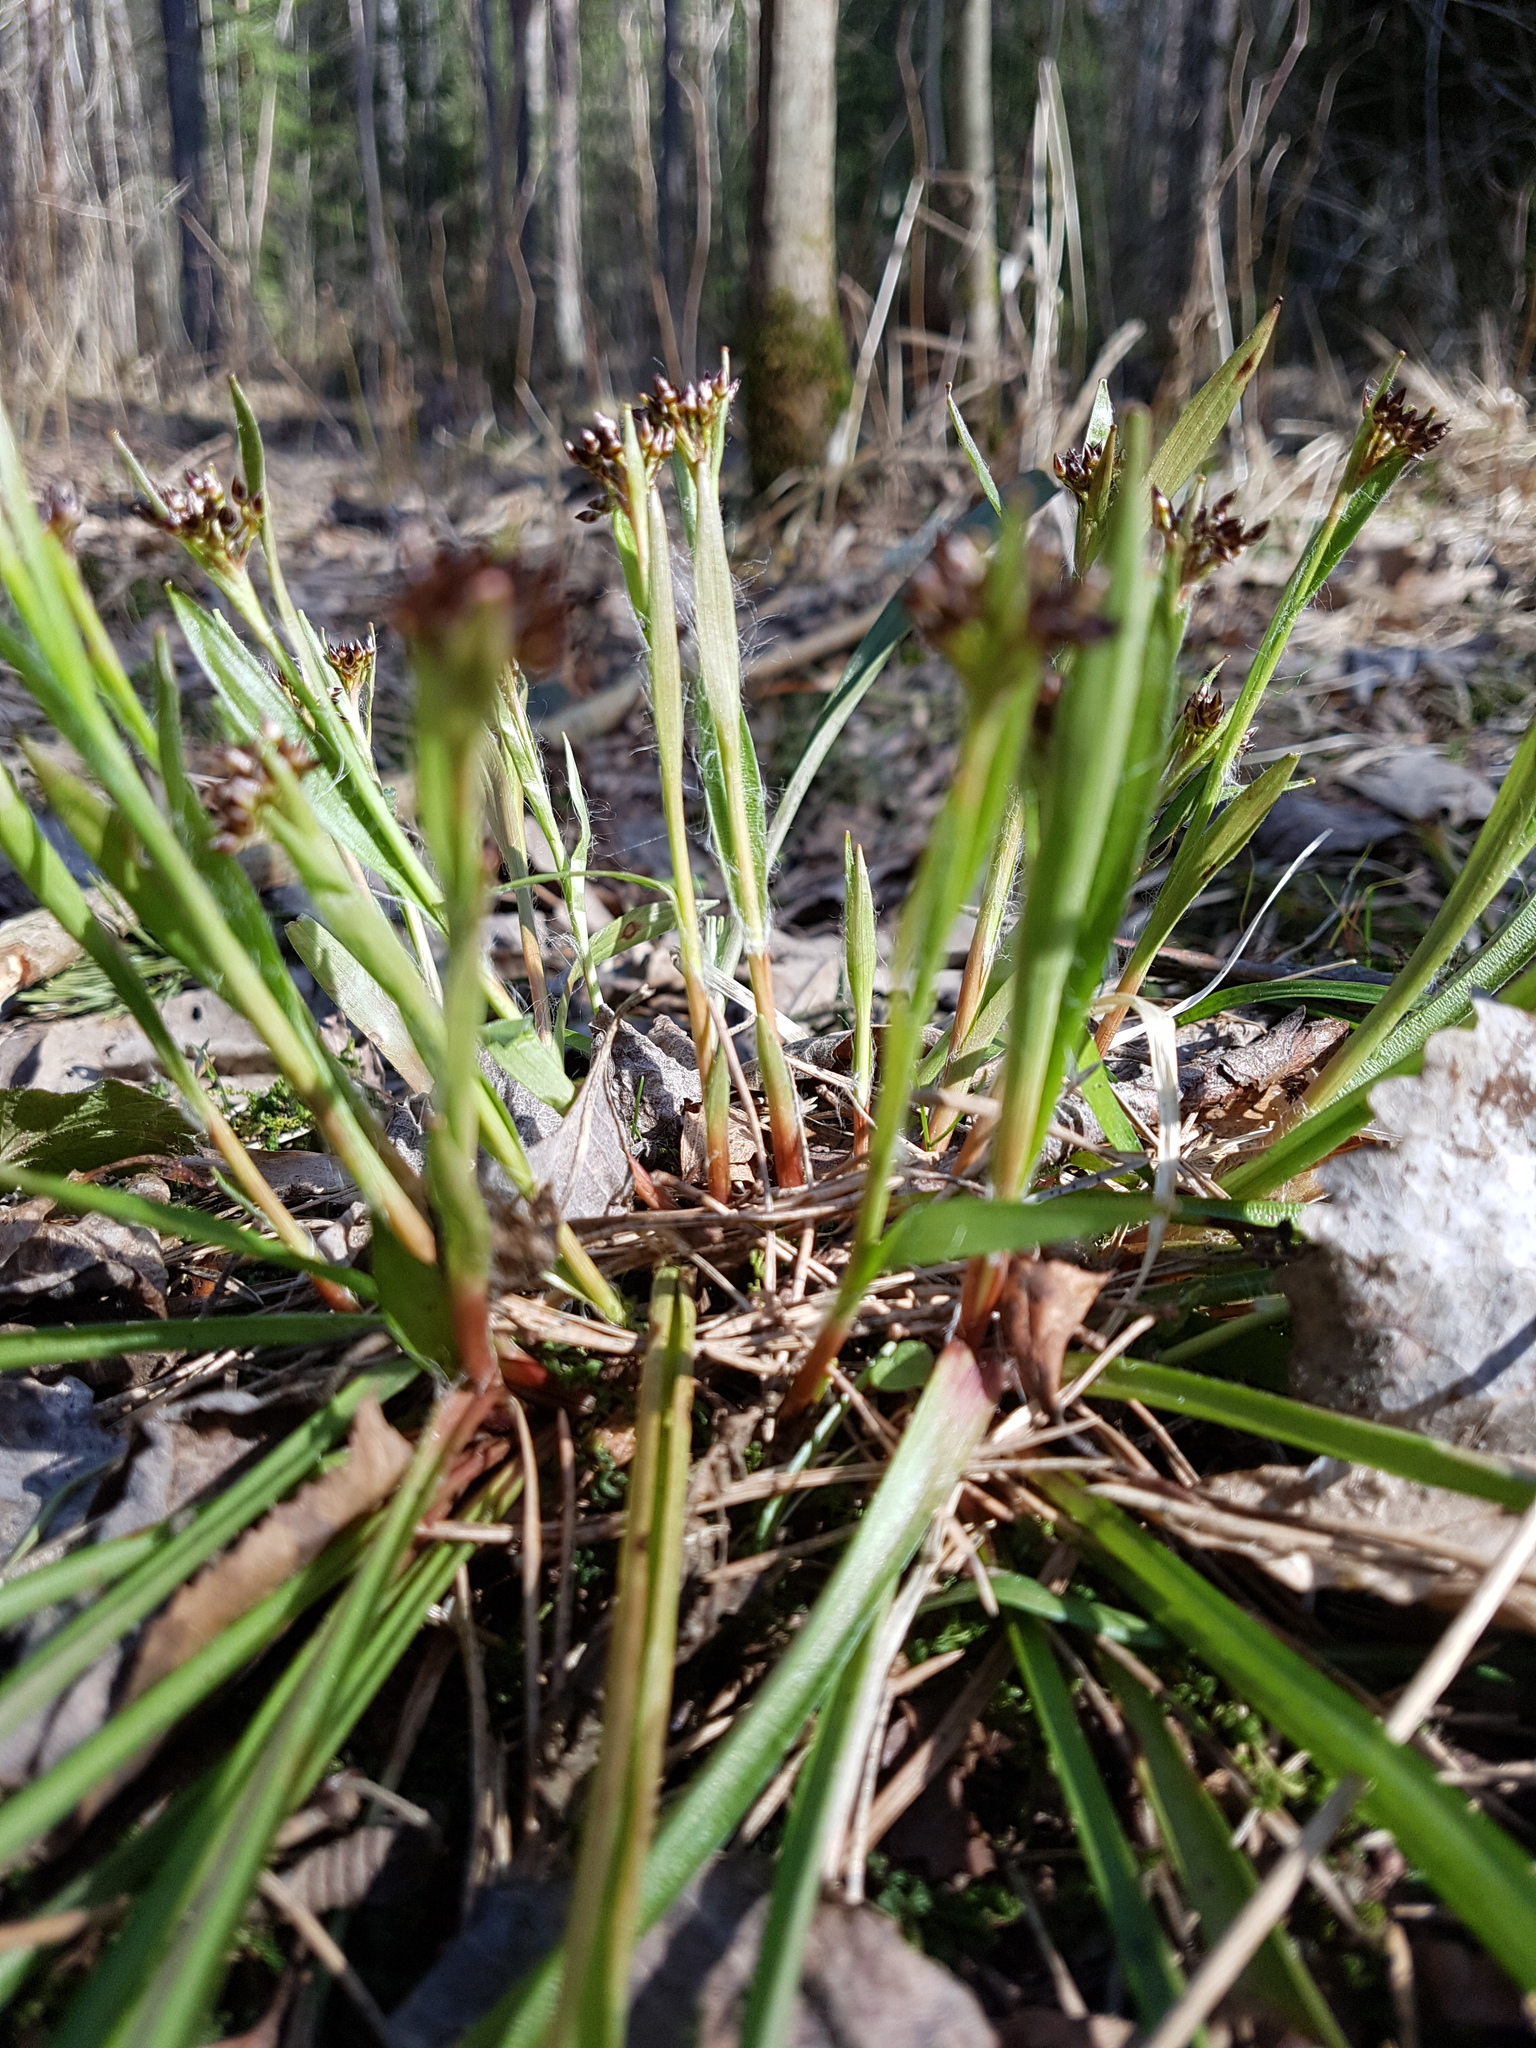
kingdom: Plantae
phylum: Tracheophyta
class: Liliopsida
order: Poales
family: Juncaceae
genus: Luzula
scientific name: Luzula pilosa
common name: Hairy wood-rush
